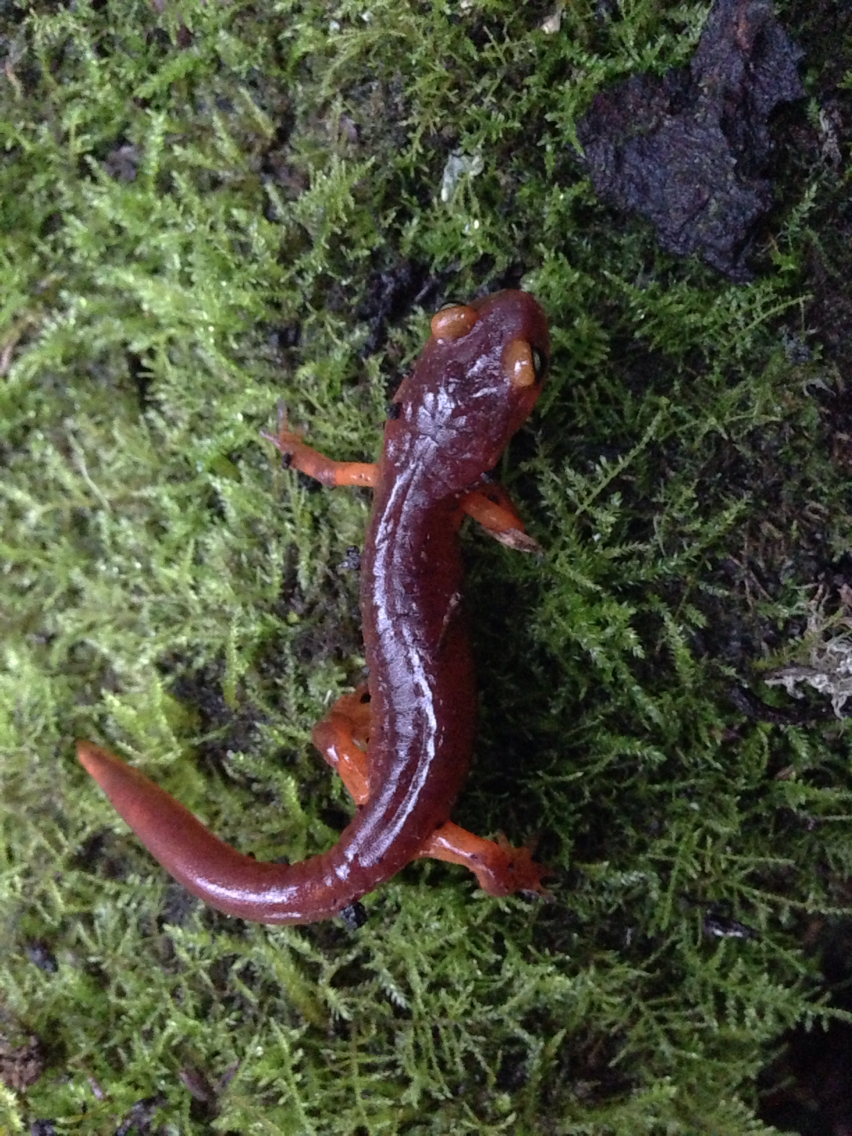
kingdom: Animalia
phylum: Chordata
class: Amphibia
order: Caudata
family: Plethodontidae
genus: Ensatina
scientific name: Ensatina eschscholtzii
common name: Ensatina
